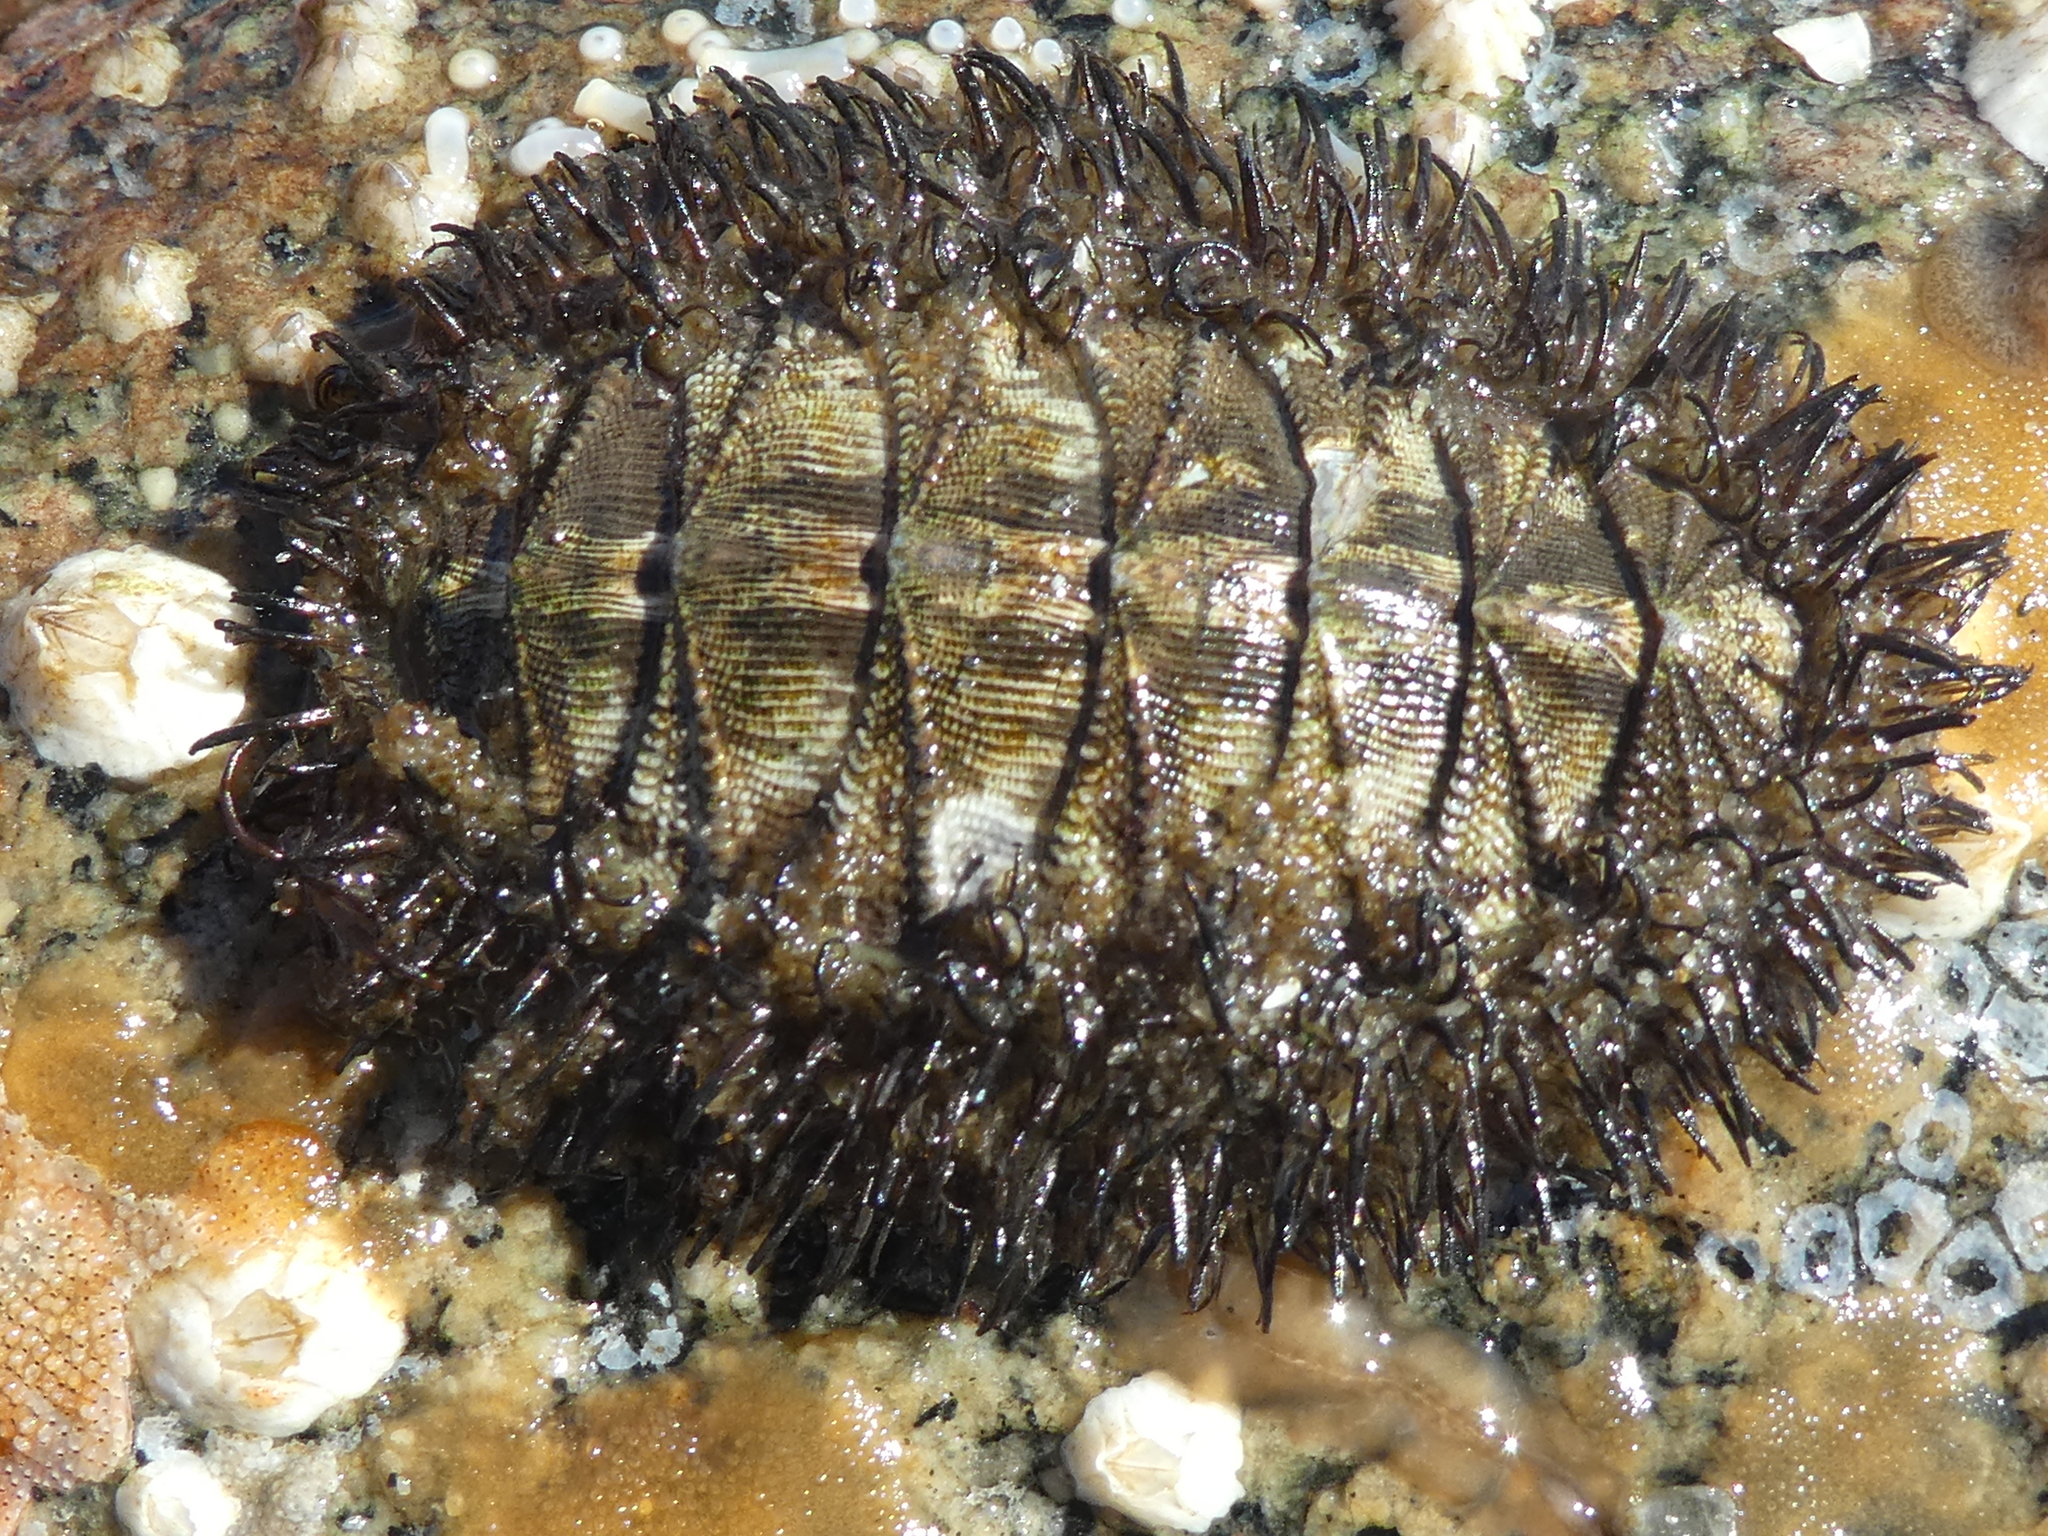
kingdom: Animalia
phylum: Mollusca
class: Polyplacophora
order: Chitonida
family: Mopaliidae
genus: Mopalia
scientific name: Mopalia muscosa
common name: Mossy chiton
